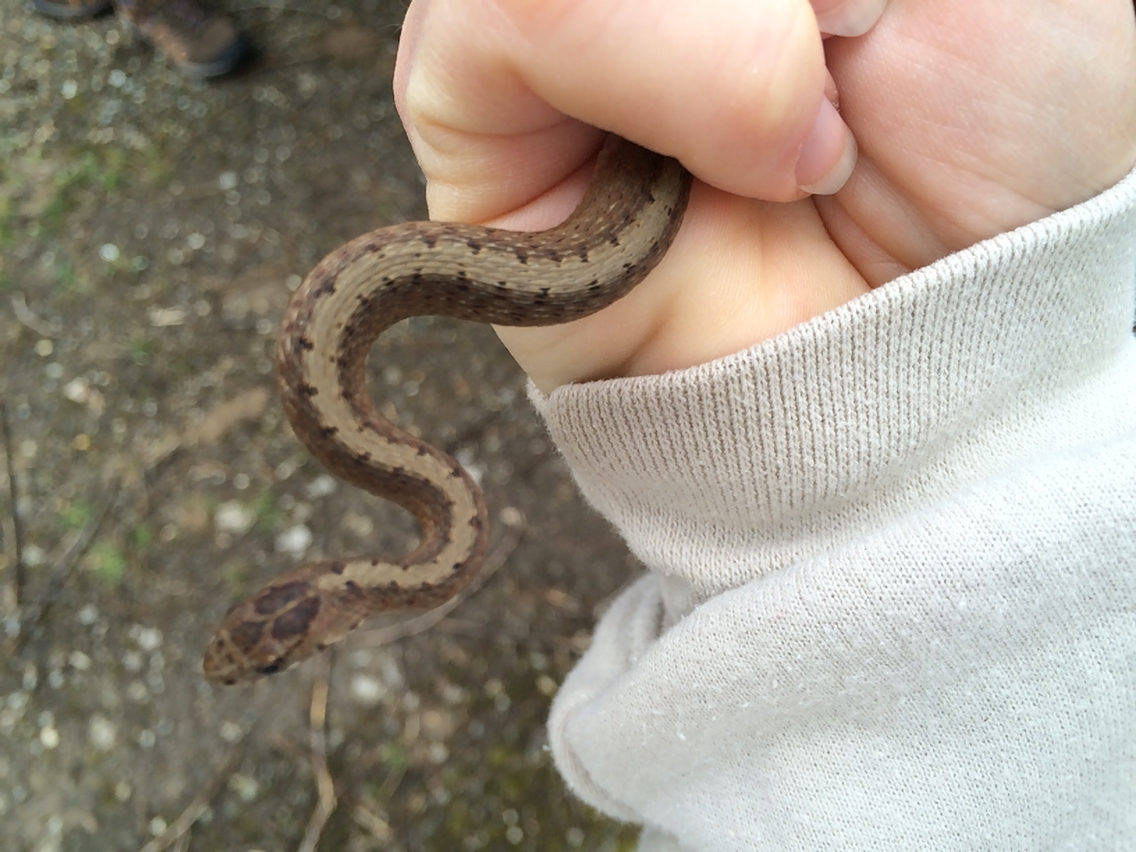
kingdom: Animalia
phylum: Chordata
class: Squamata
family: Colubridae
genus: Storeria
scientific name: Storeria dekayi
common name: (dekay’s) brown snake
